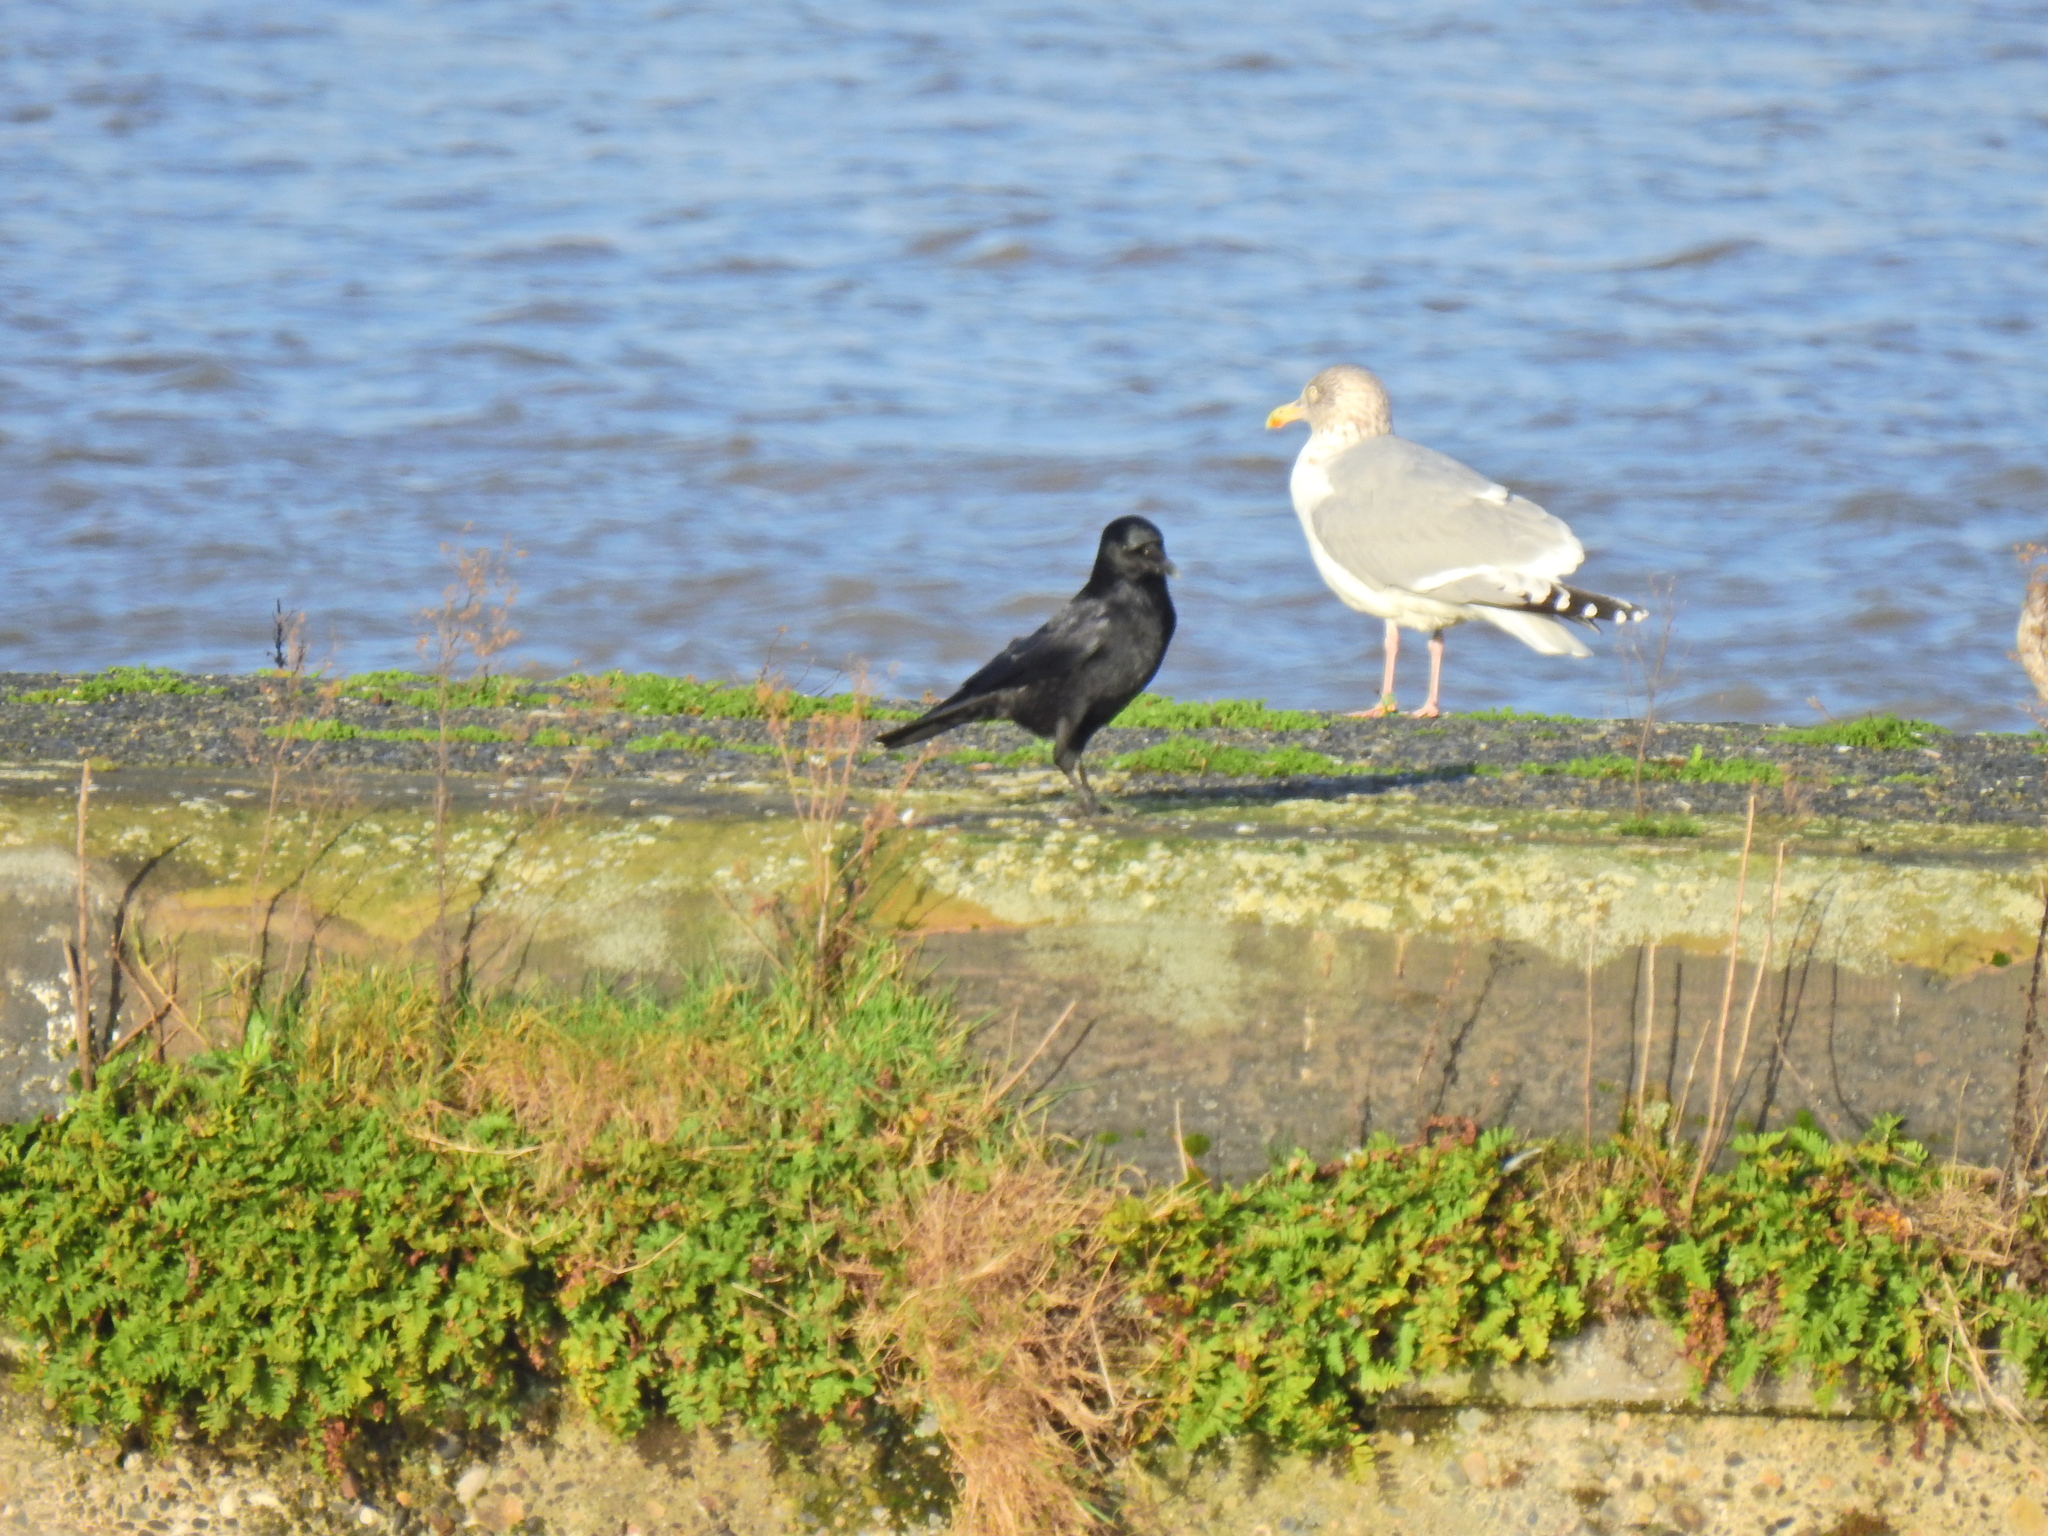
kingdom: Animalia
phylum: Chordata
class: Aves
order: Passeriformes
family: Corvidae
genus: Corvus
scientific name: Corvus corone
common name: Carrion crow
